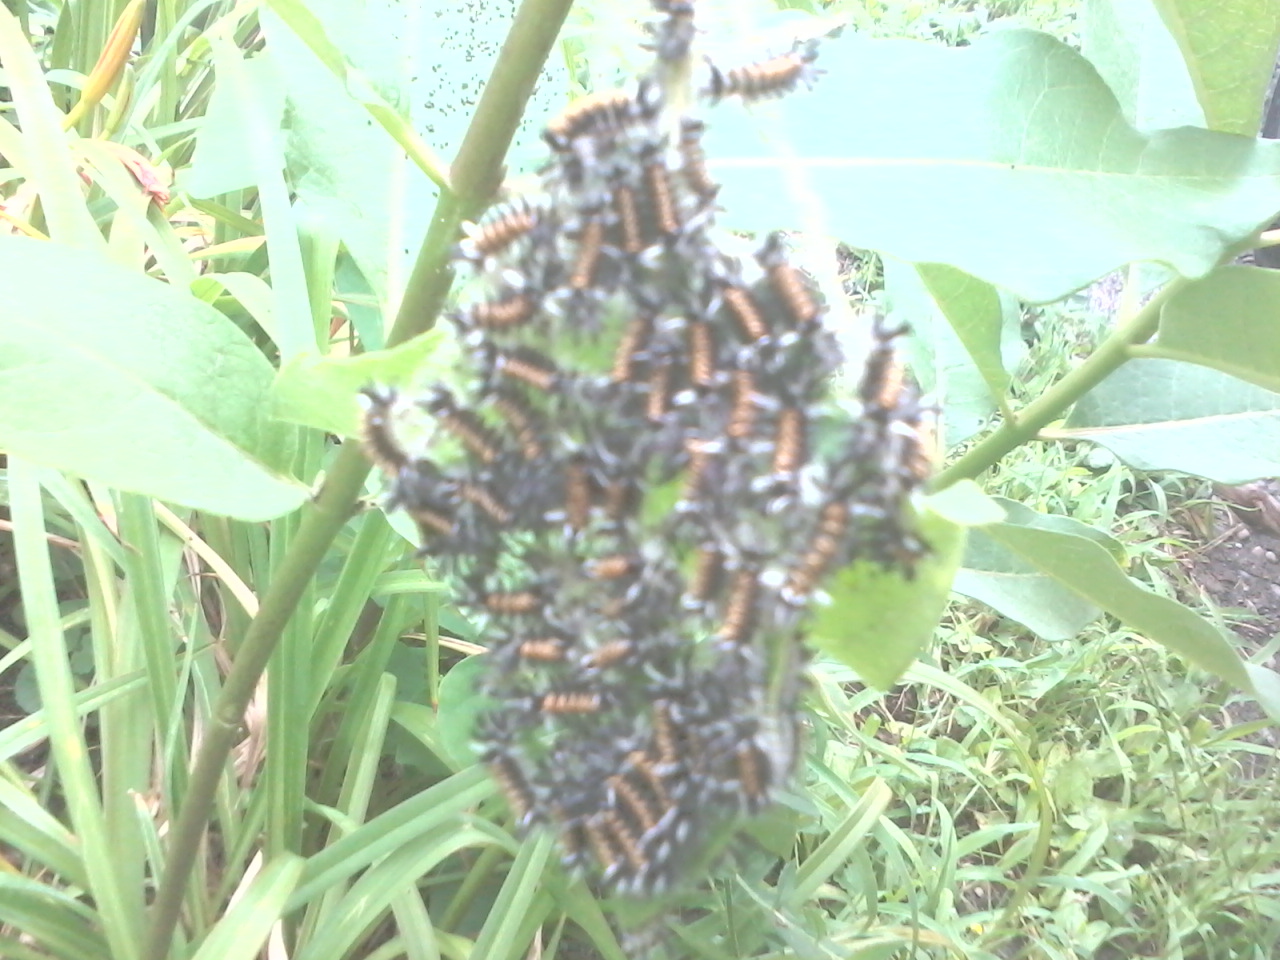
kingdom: Animalia
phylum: Arthropoda
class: Insecta
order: Lepidoptera
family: Erebidae
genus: Euchaetes
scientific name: Euchaetes egle
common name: Milkweed tussock moth
